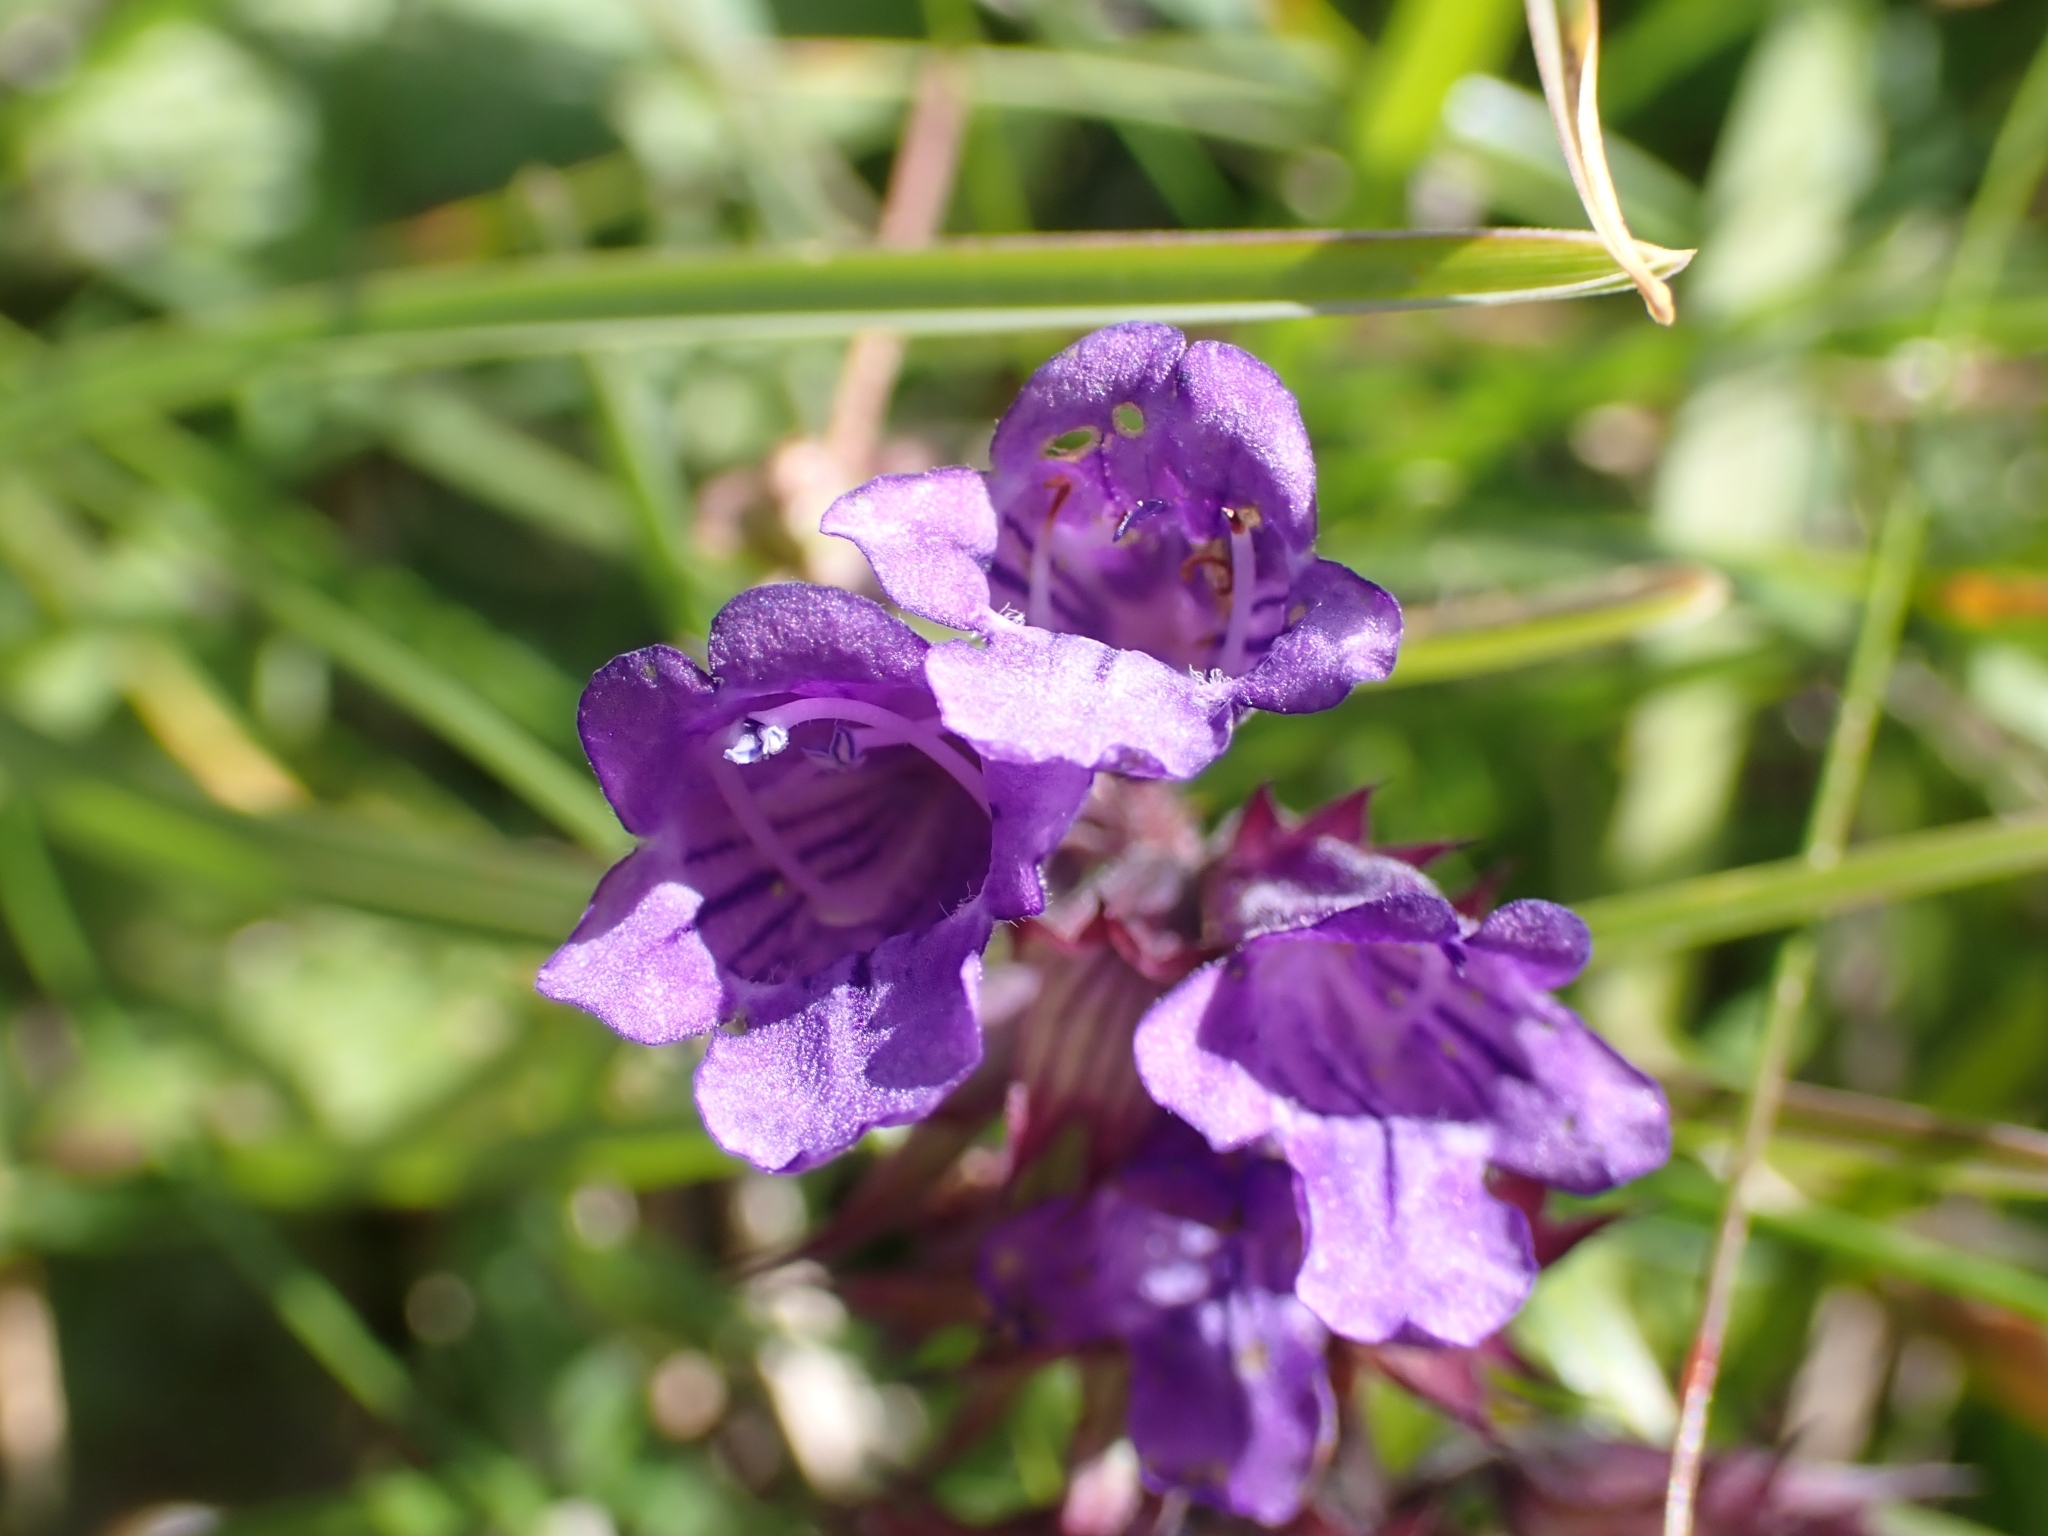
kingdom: Plantae
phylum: Tracheophyta
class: Magnoliopsida
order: Lamiales
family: Lamiaceae
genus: Horminum
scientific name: Horminum pyrenaicum
